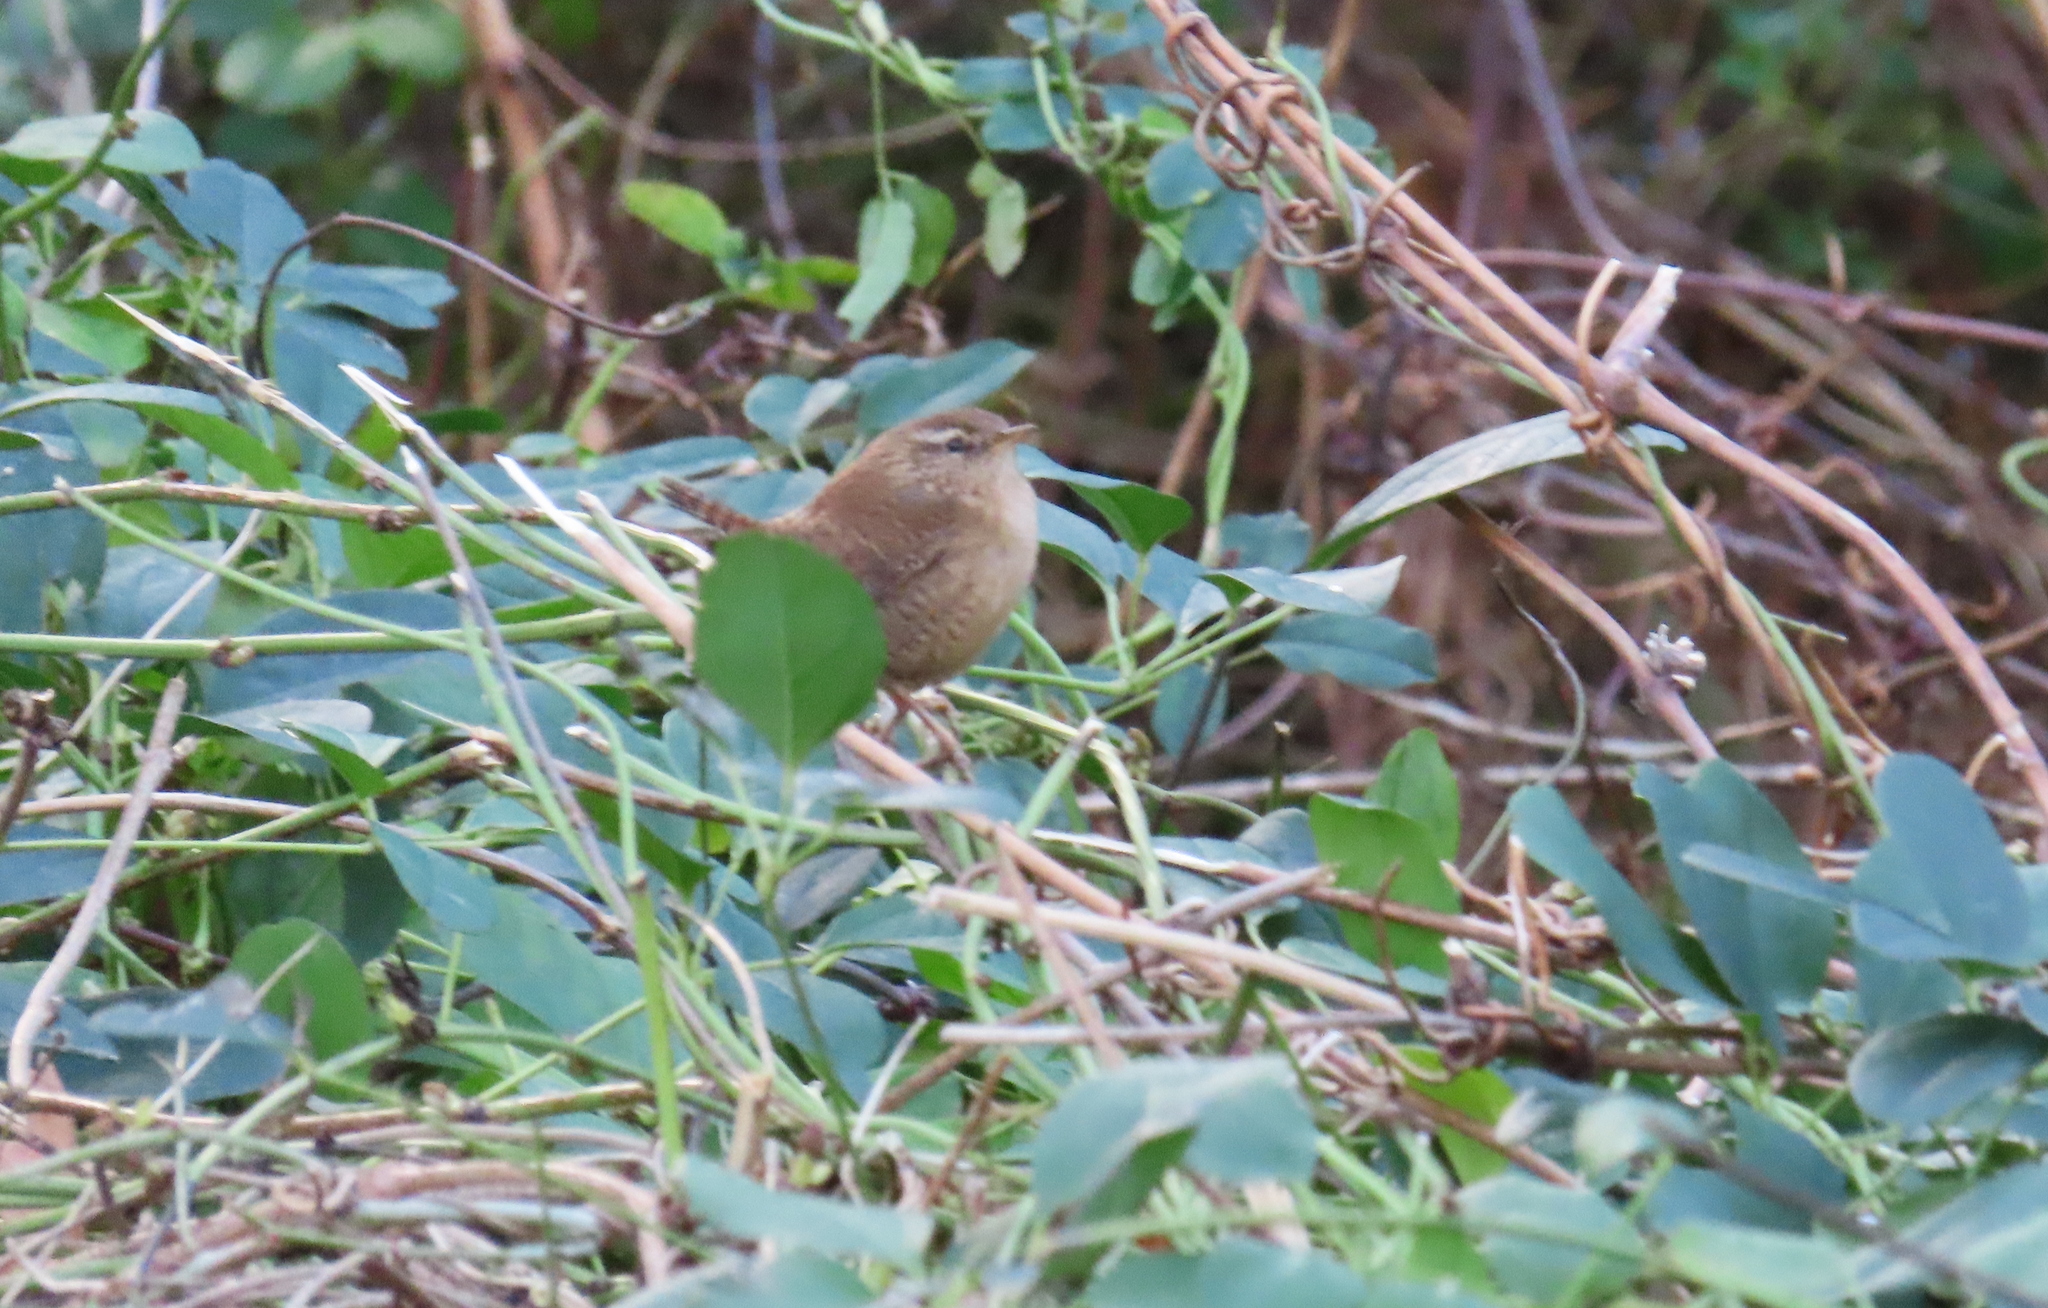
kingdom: Animalia
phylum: Chordata
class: Aves
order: Passeriformes
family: Troglodytidae
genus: Troglodytes
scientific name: Troglodytes troglodytes
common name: Eurasian wren
